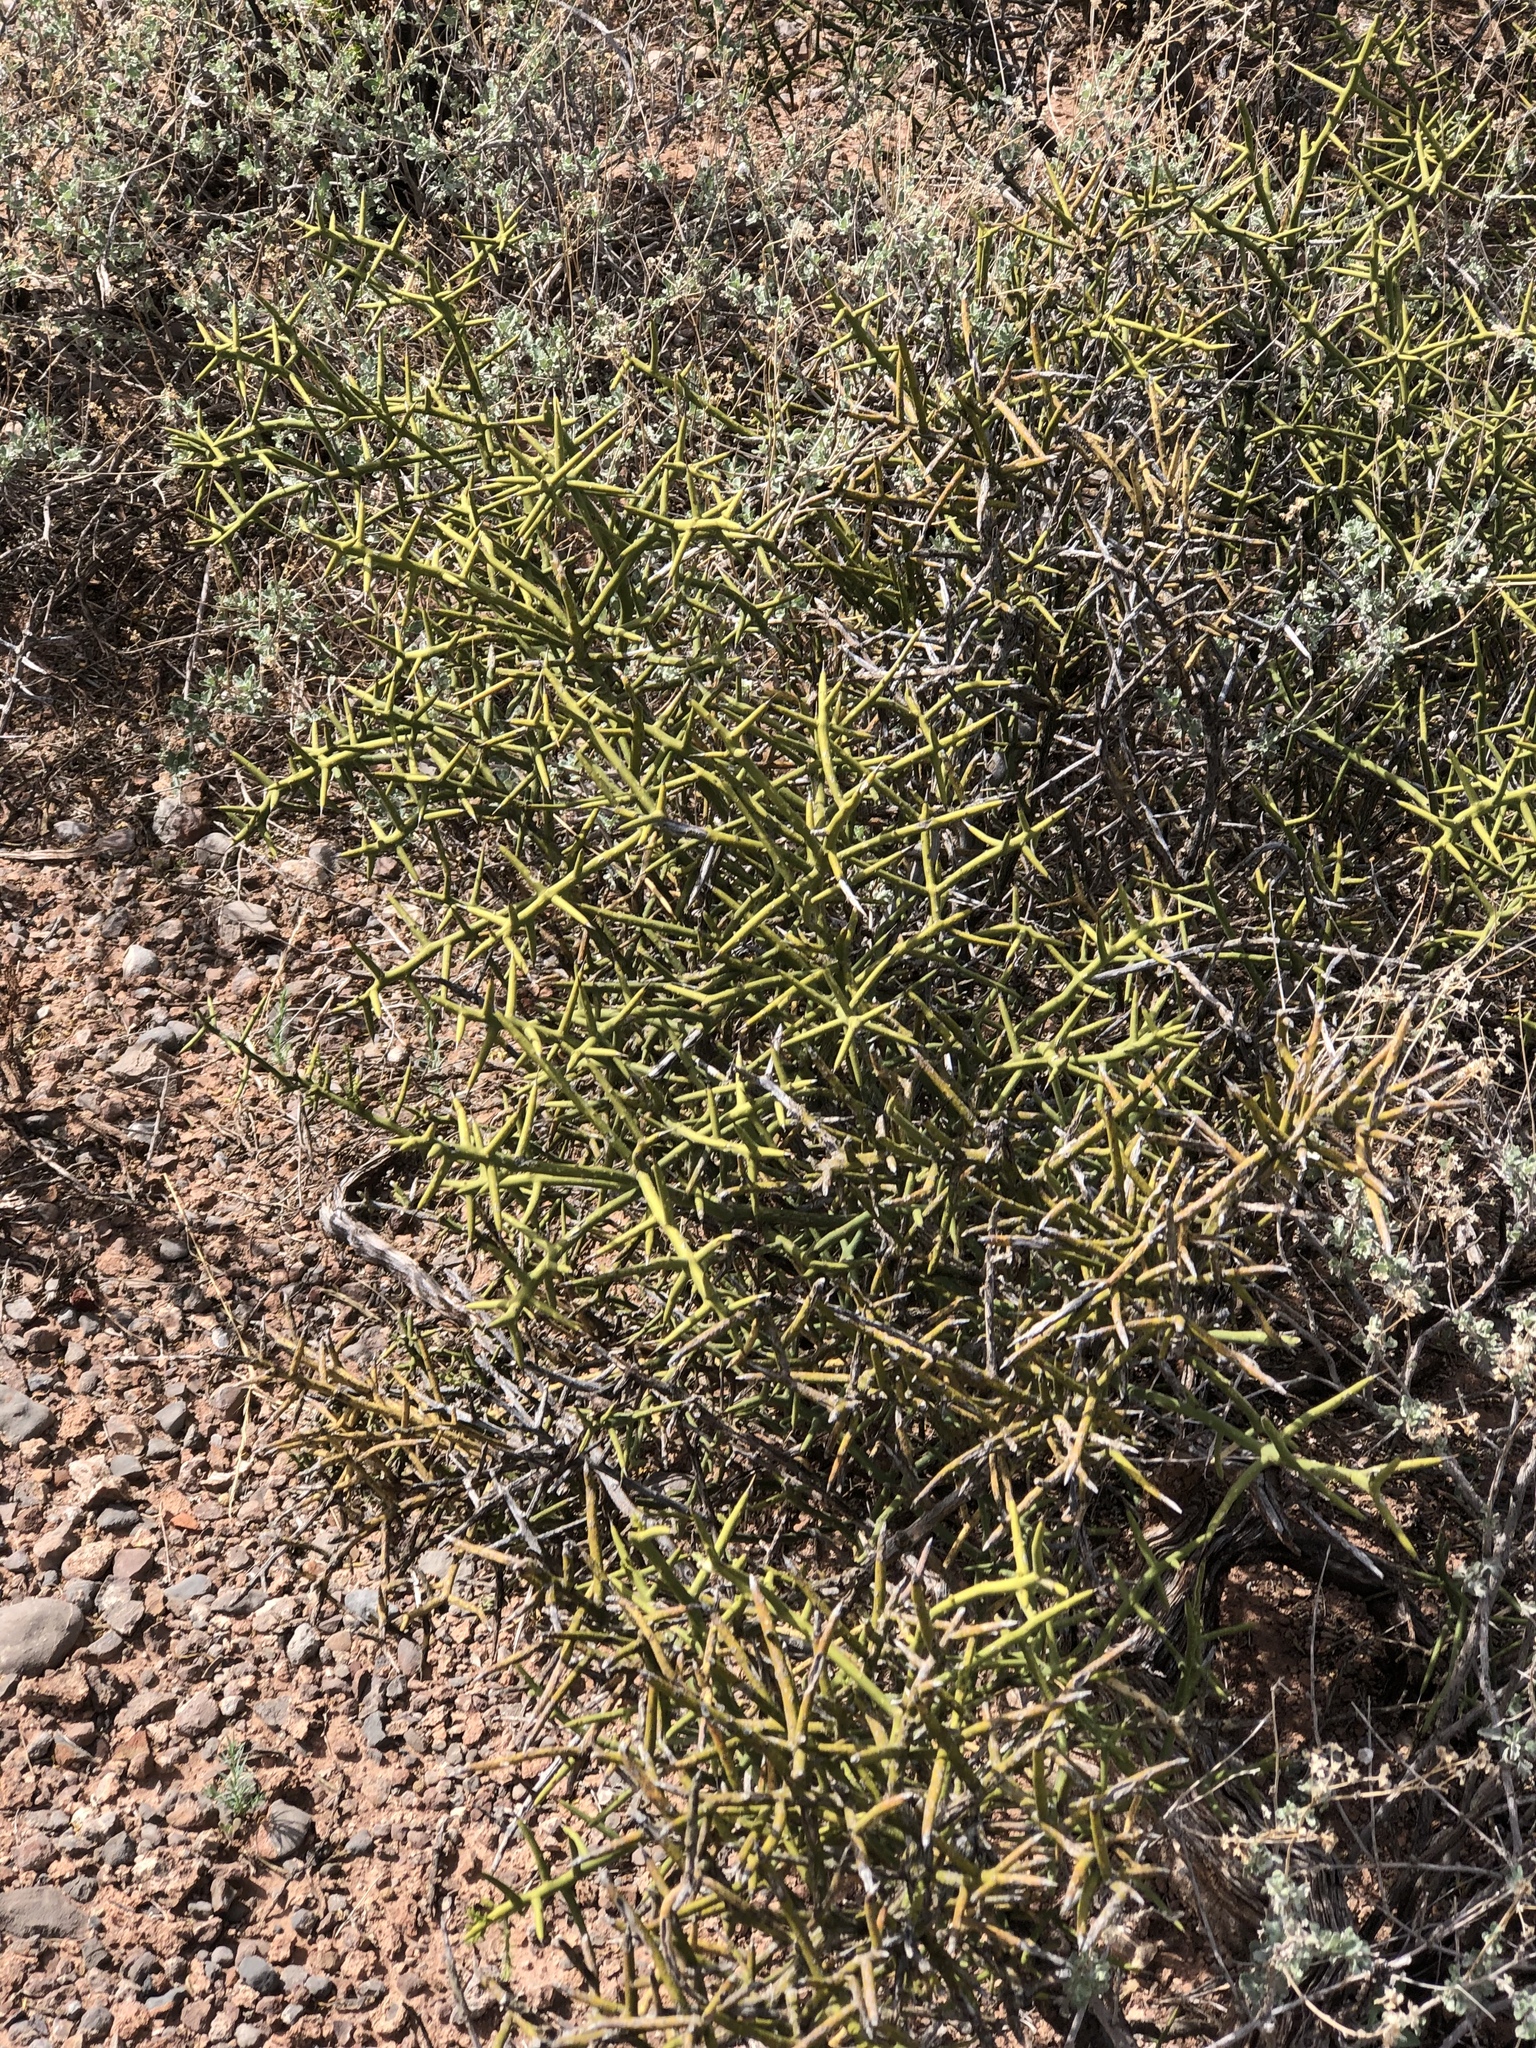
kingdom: Plantae
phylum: Tracheophyta
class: Magnoliopsida
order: Brassicales
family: Koeberliniaceae
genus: Koeberlinia
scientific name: Koeberlinia spinosa
